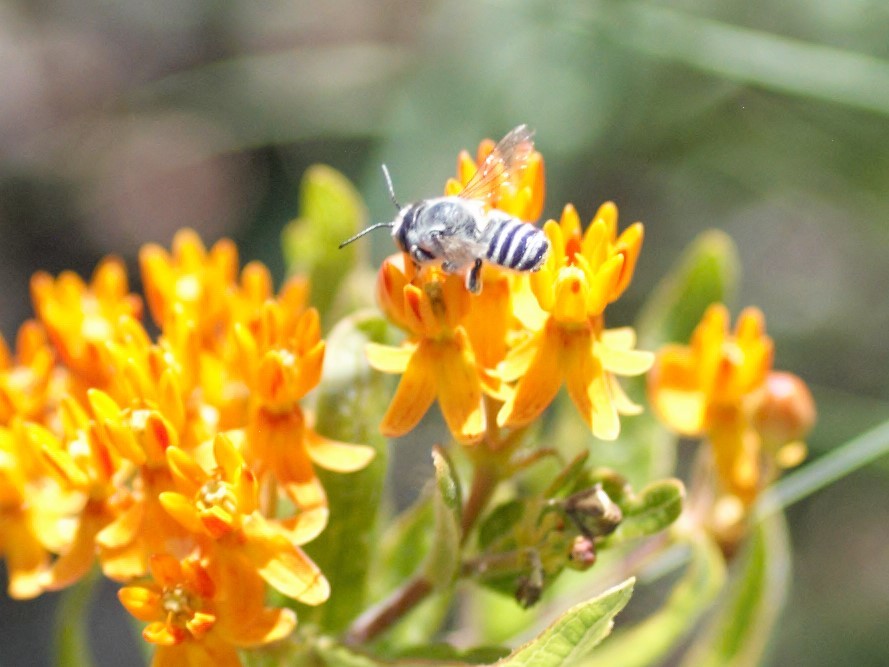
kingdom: Animalia
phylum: Arthropoda
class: Insecta
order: Hymenoptera
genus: Litomegachile
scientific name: Litomegachile
